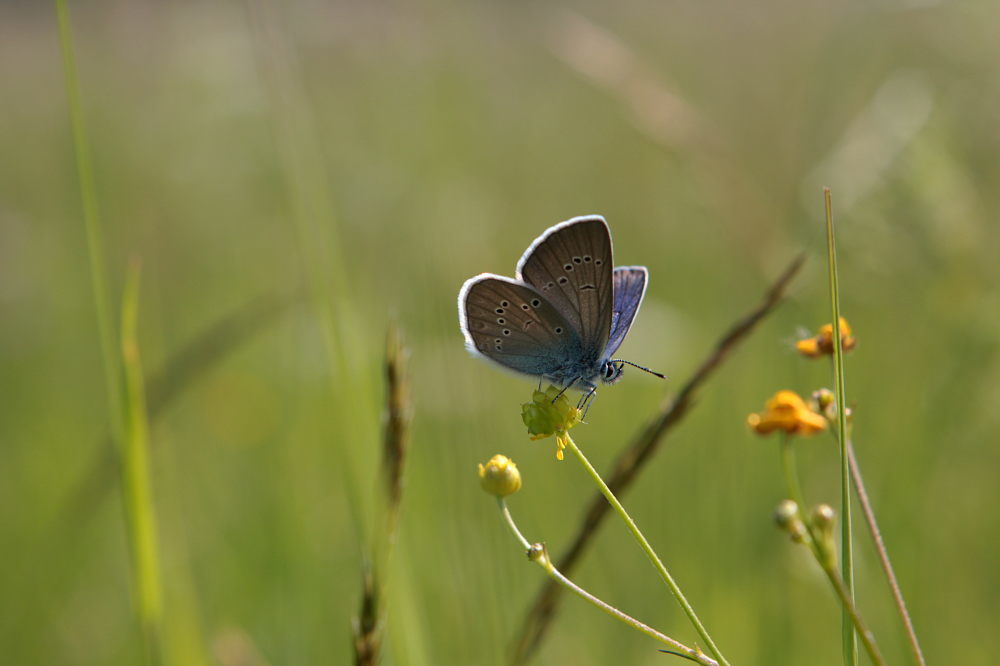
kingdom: Animalia
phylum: Arthropoda
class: Insecta
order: Lepidoptera
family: Lycaenidae
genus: Cyaniris
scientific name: Cyaniris semiargus
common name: Mazarine blue
